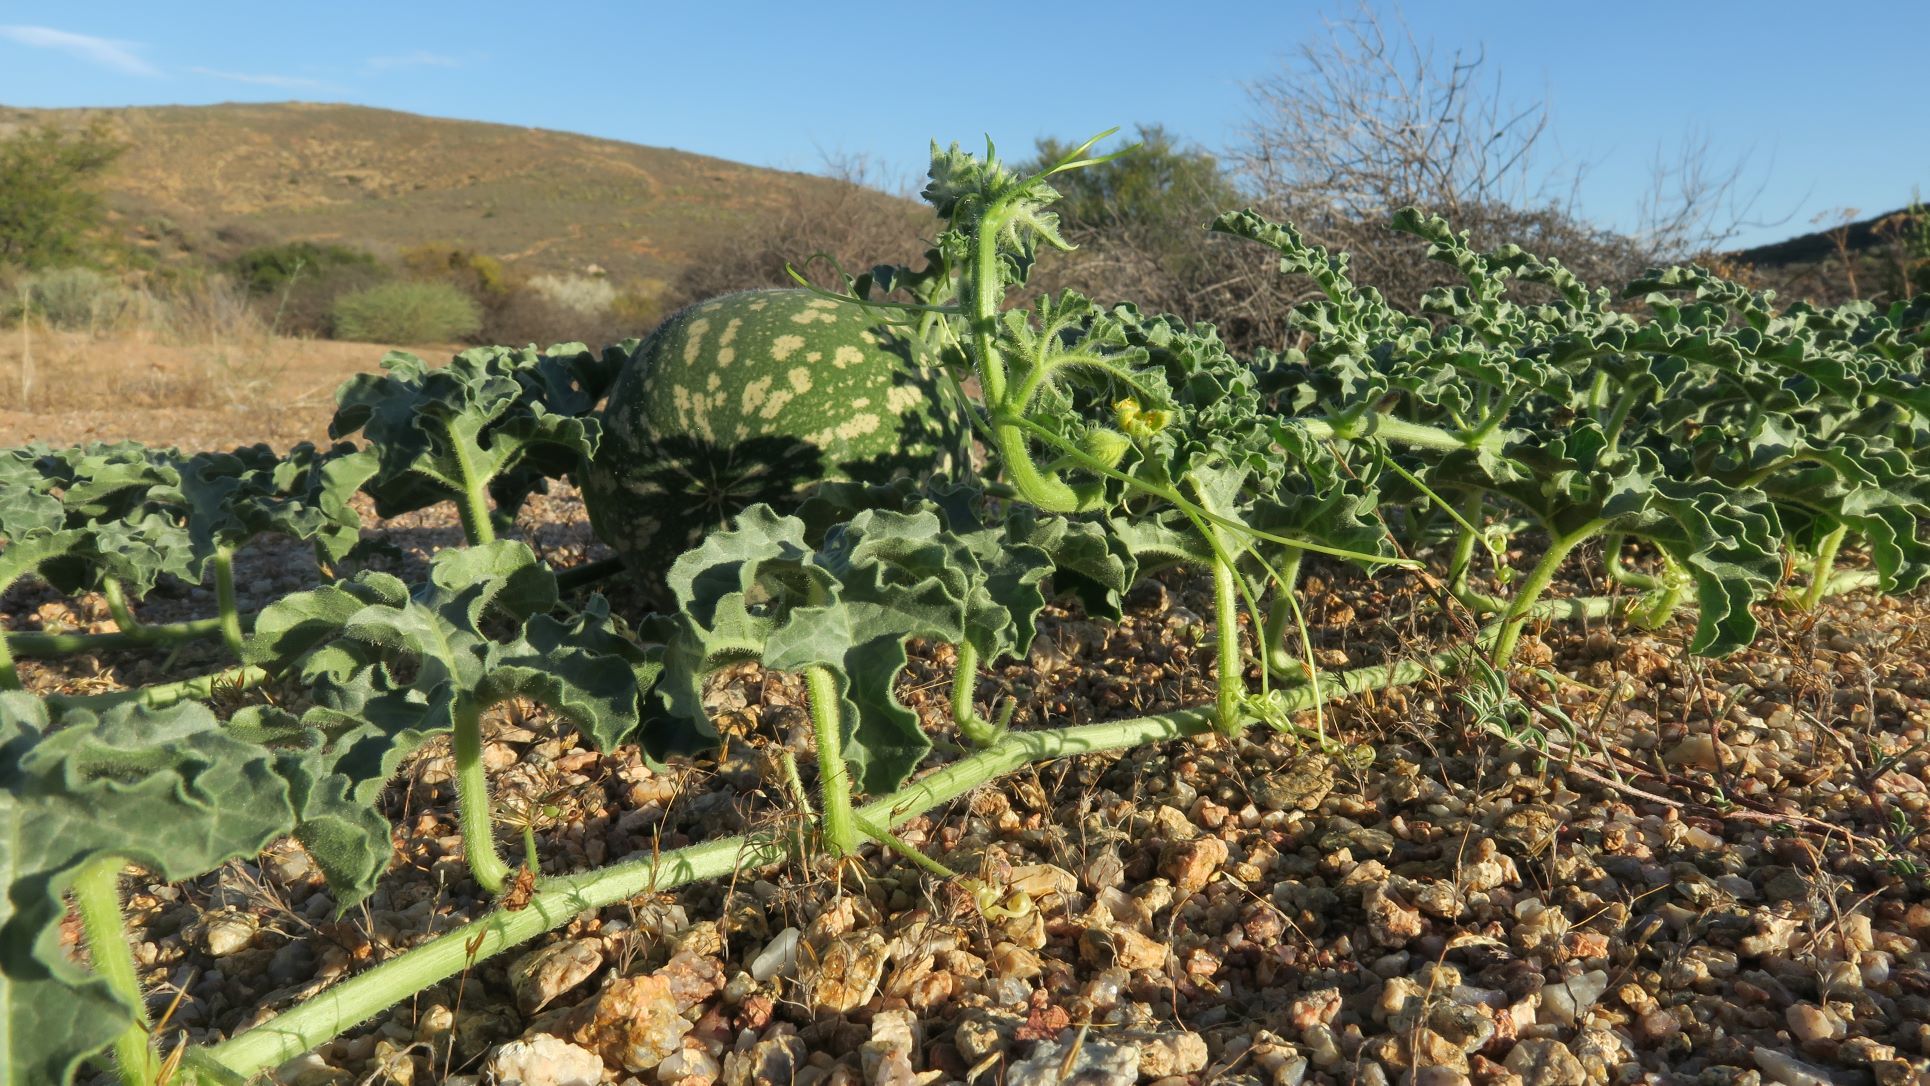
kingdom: Plantae
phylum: Tracheophyta
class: Magnoliopsida
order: Cucurbitales
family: Cucurbitaceae
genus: Citrullus
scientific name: Citrullus amarus
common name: Fodder-melon
